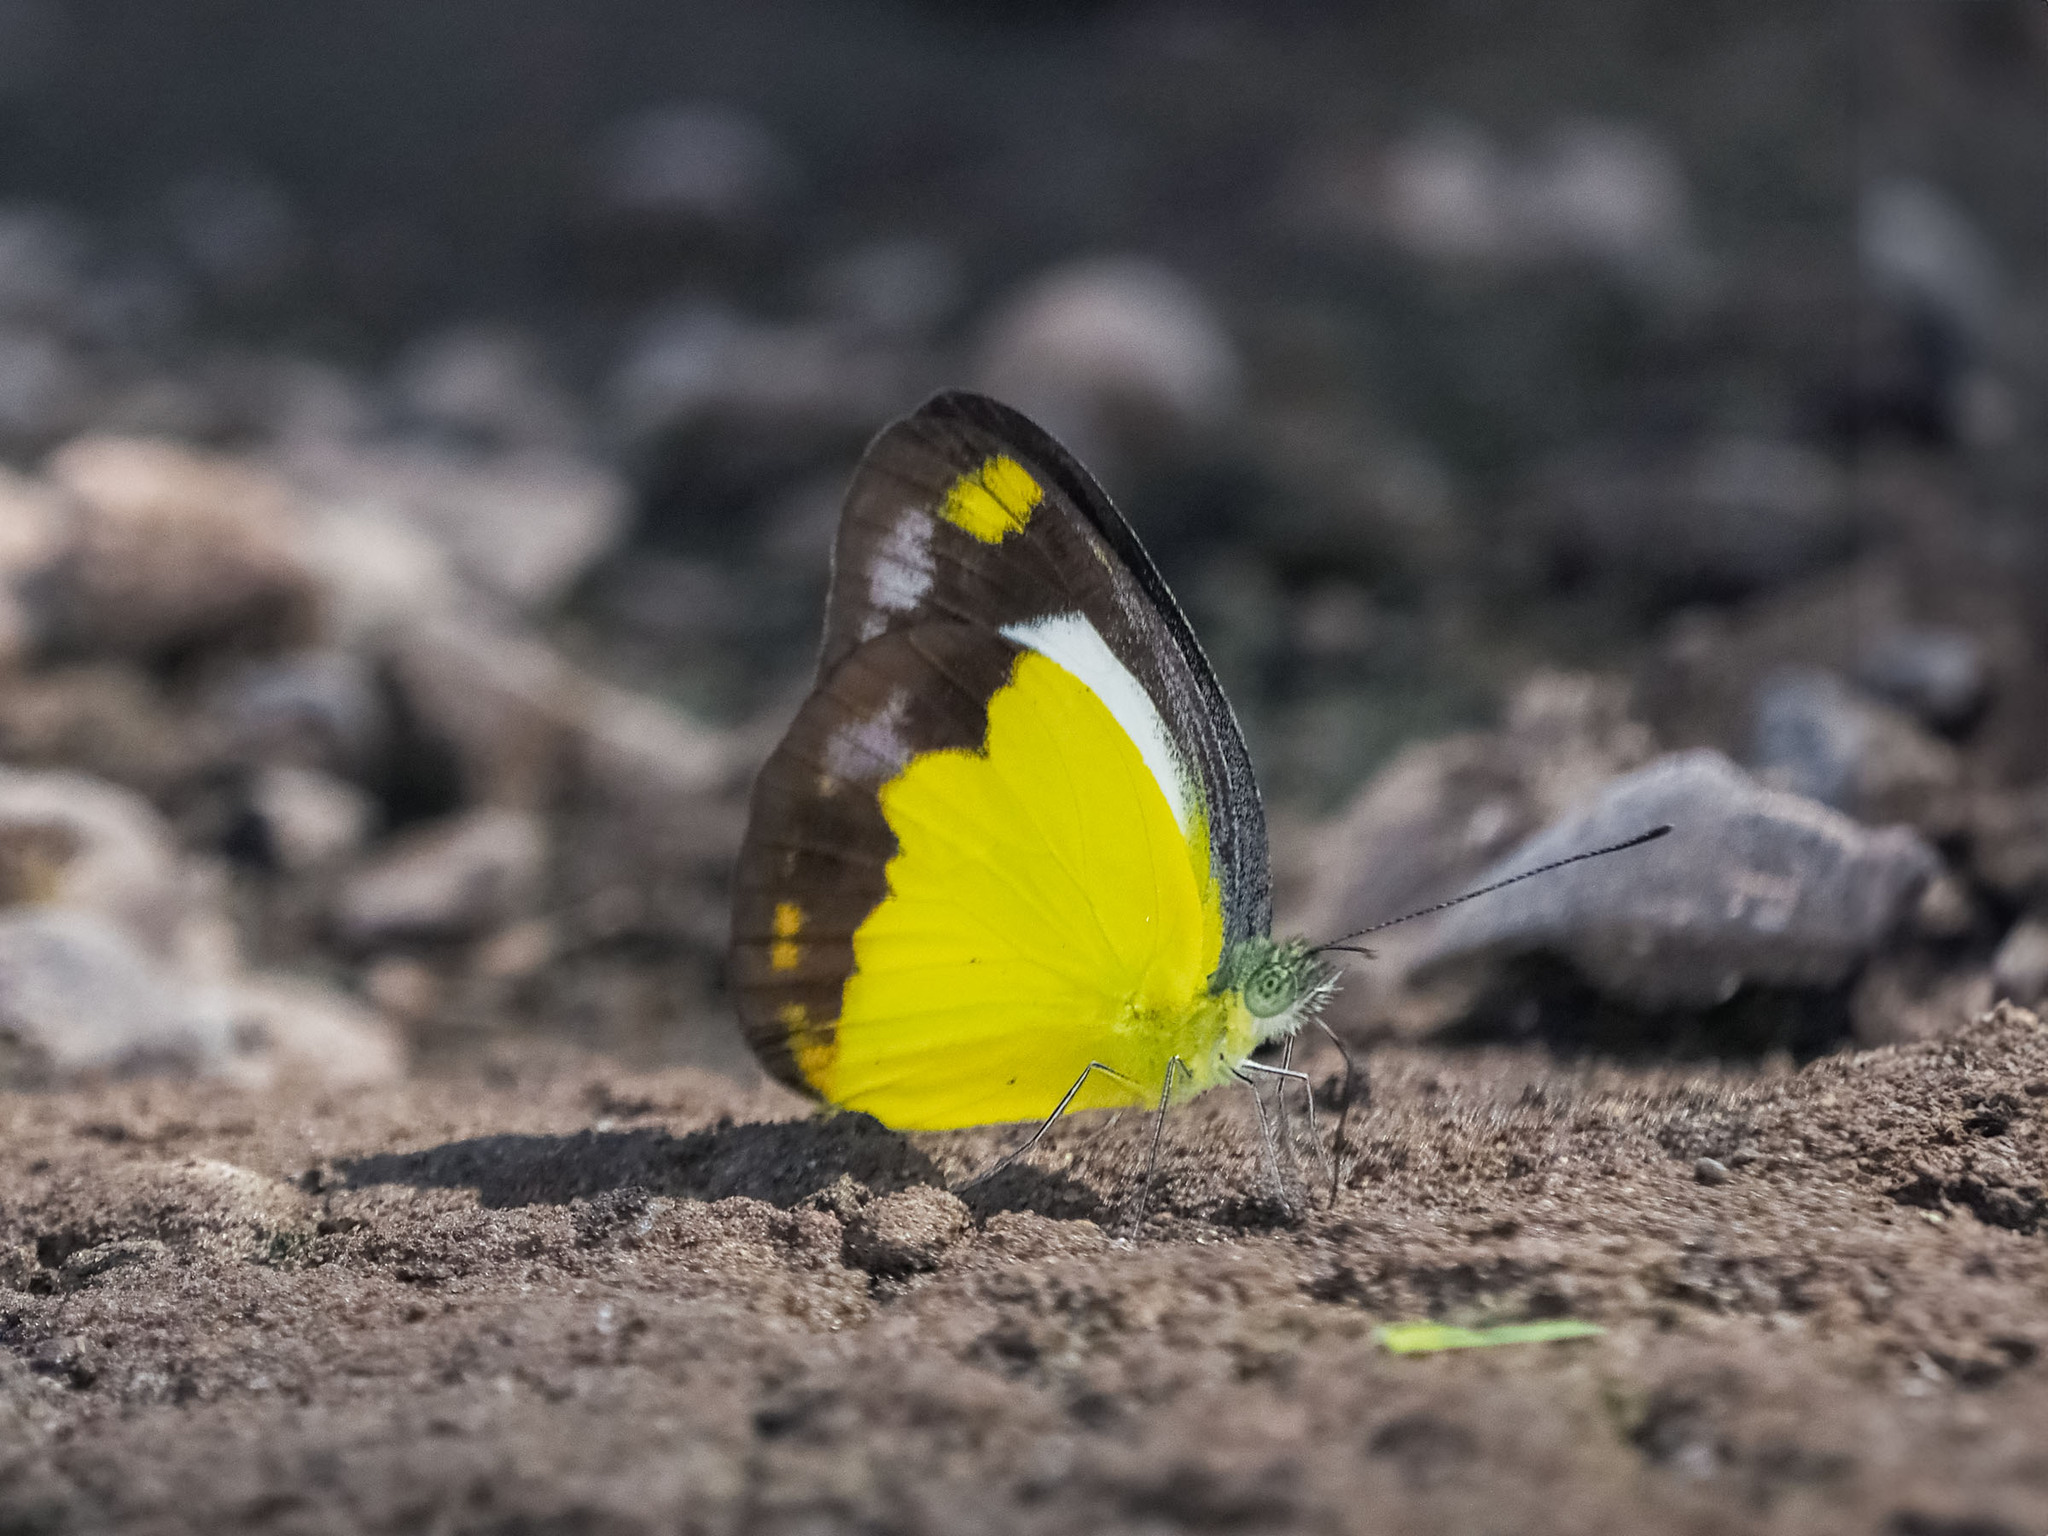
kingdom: Animalia
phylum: Arthropoda
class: Insecta
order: Lepidoptera
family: Pieridae
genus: Cepora
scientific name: Cepora boisduvaliana
